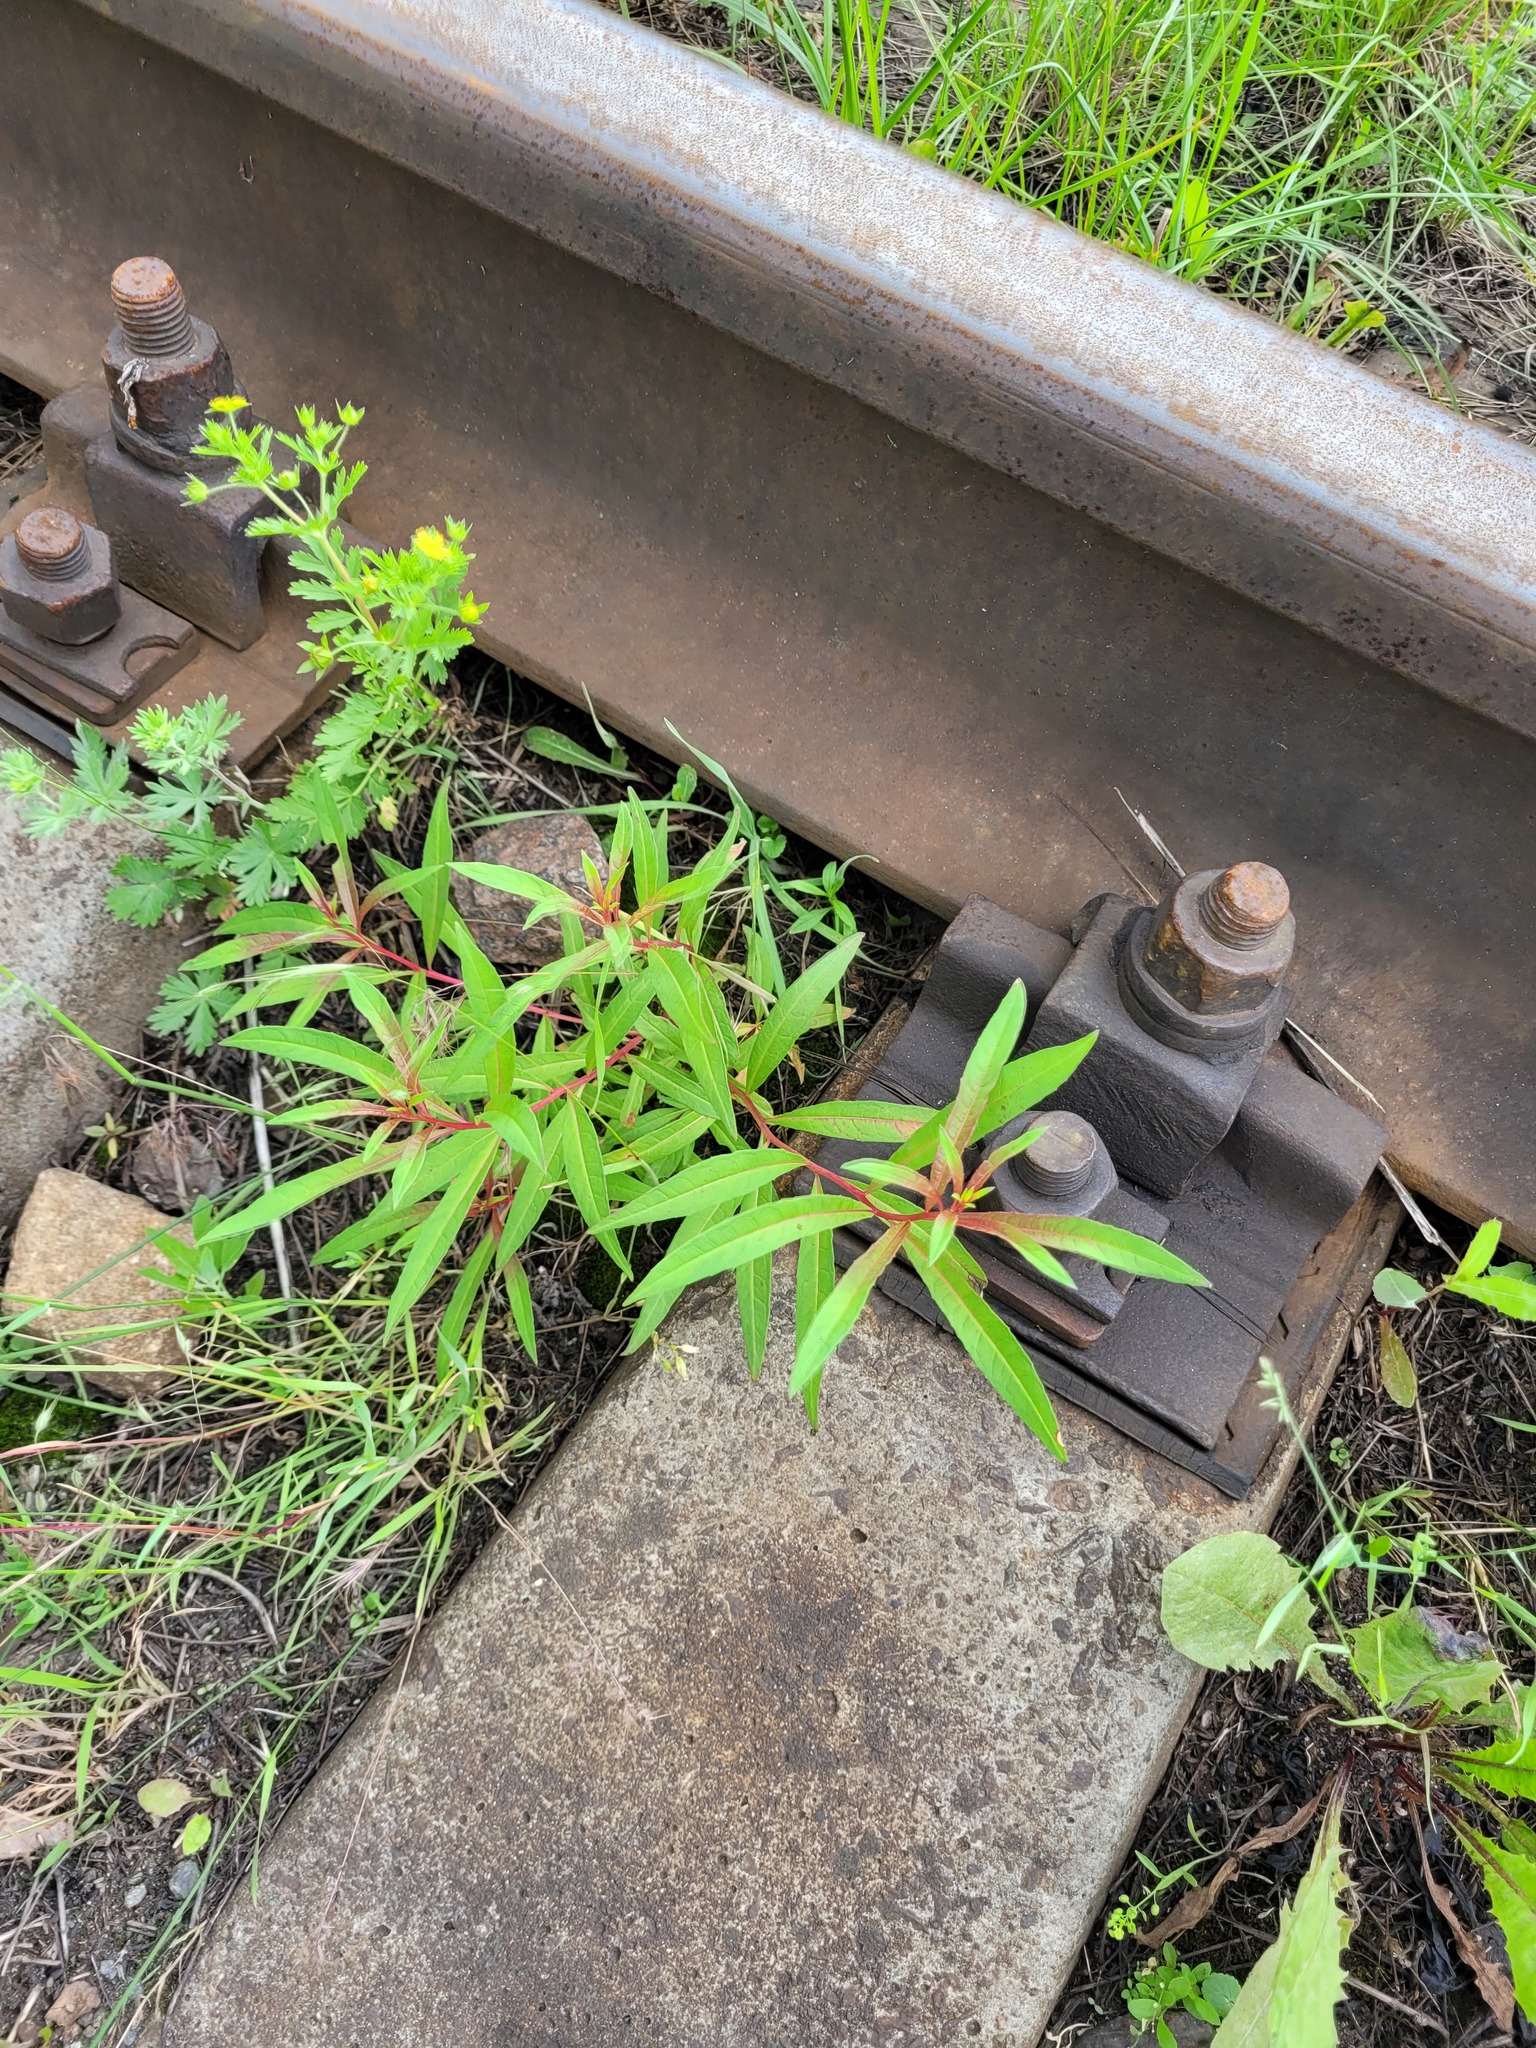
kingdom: Plantae
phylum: Tracheophyta
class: Magnoliopsida
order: Myrtales
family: Onagraceae
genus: Chamaenerion
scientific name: Chamaenerion angustifolium
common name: Fireweed
